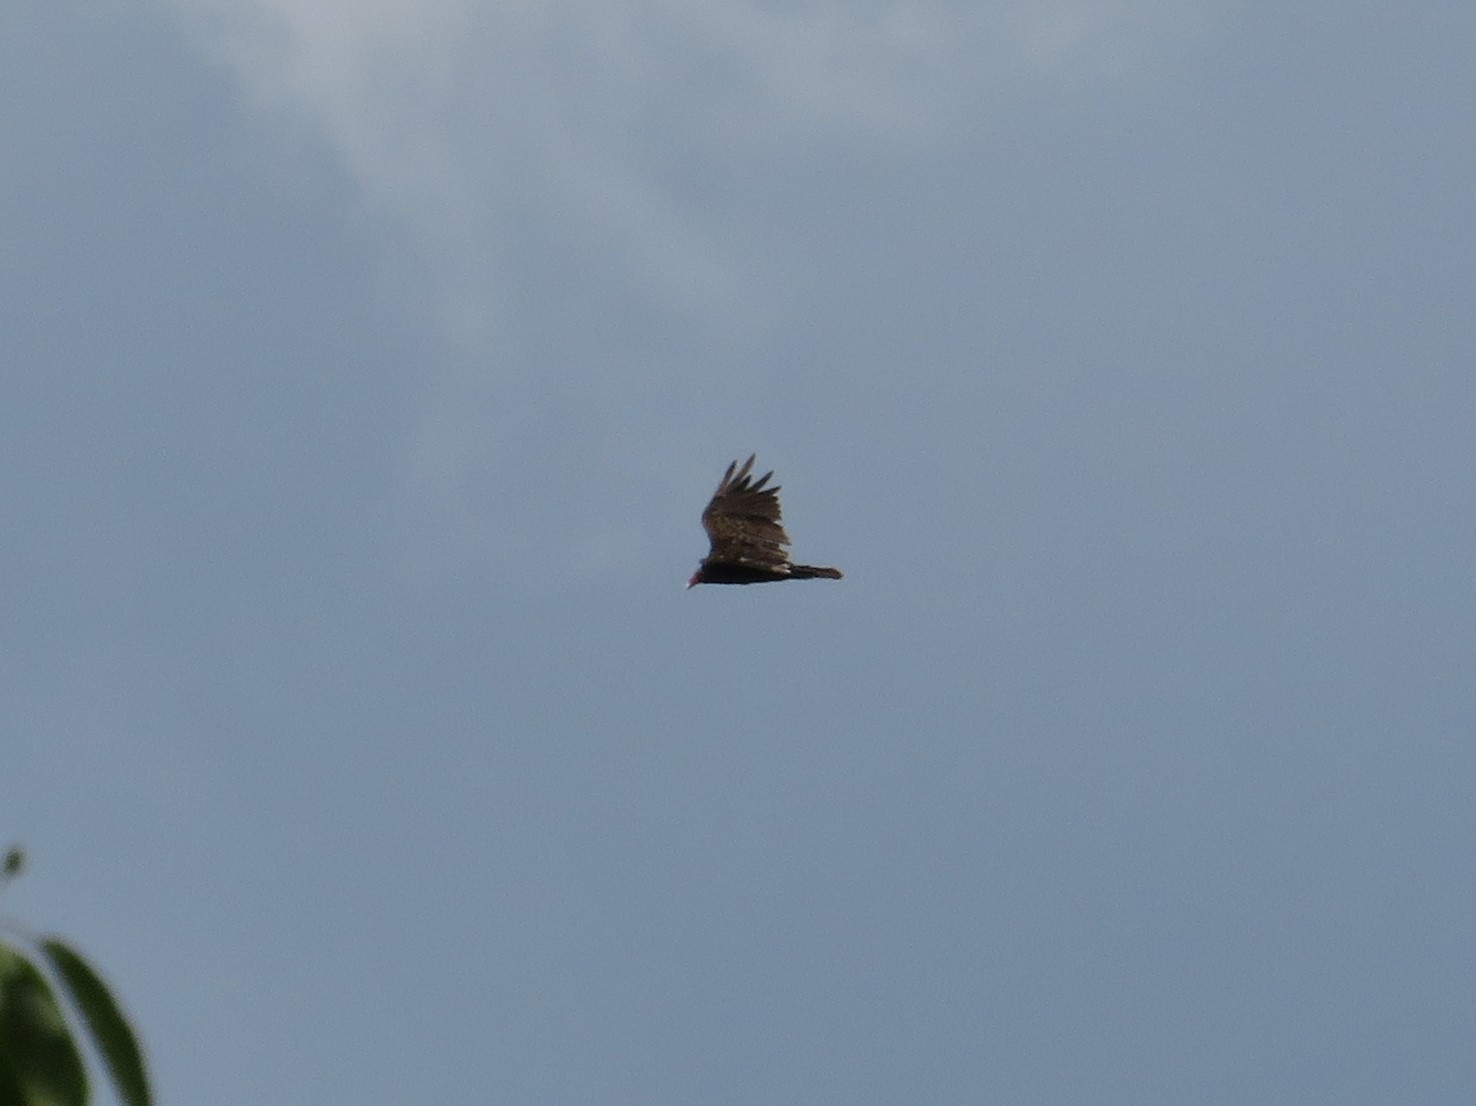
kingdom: Animalia
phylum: Chordata
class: Aves
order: Accipitriformes
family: Cathartidae
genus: Cathartes
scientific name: Cathartes aura
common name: Turkey vulture
